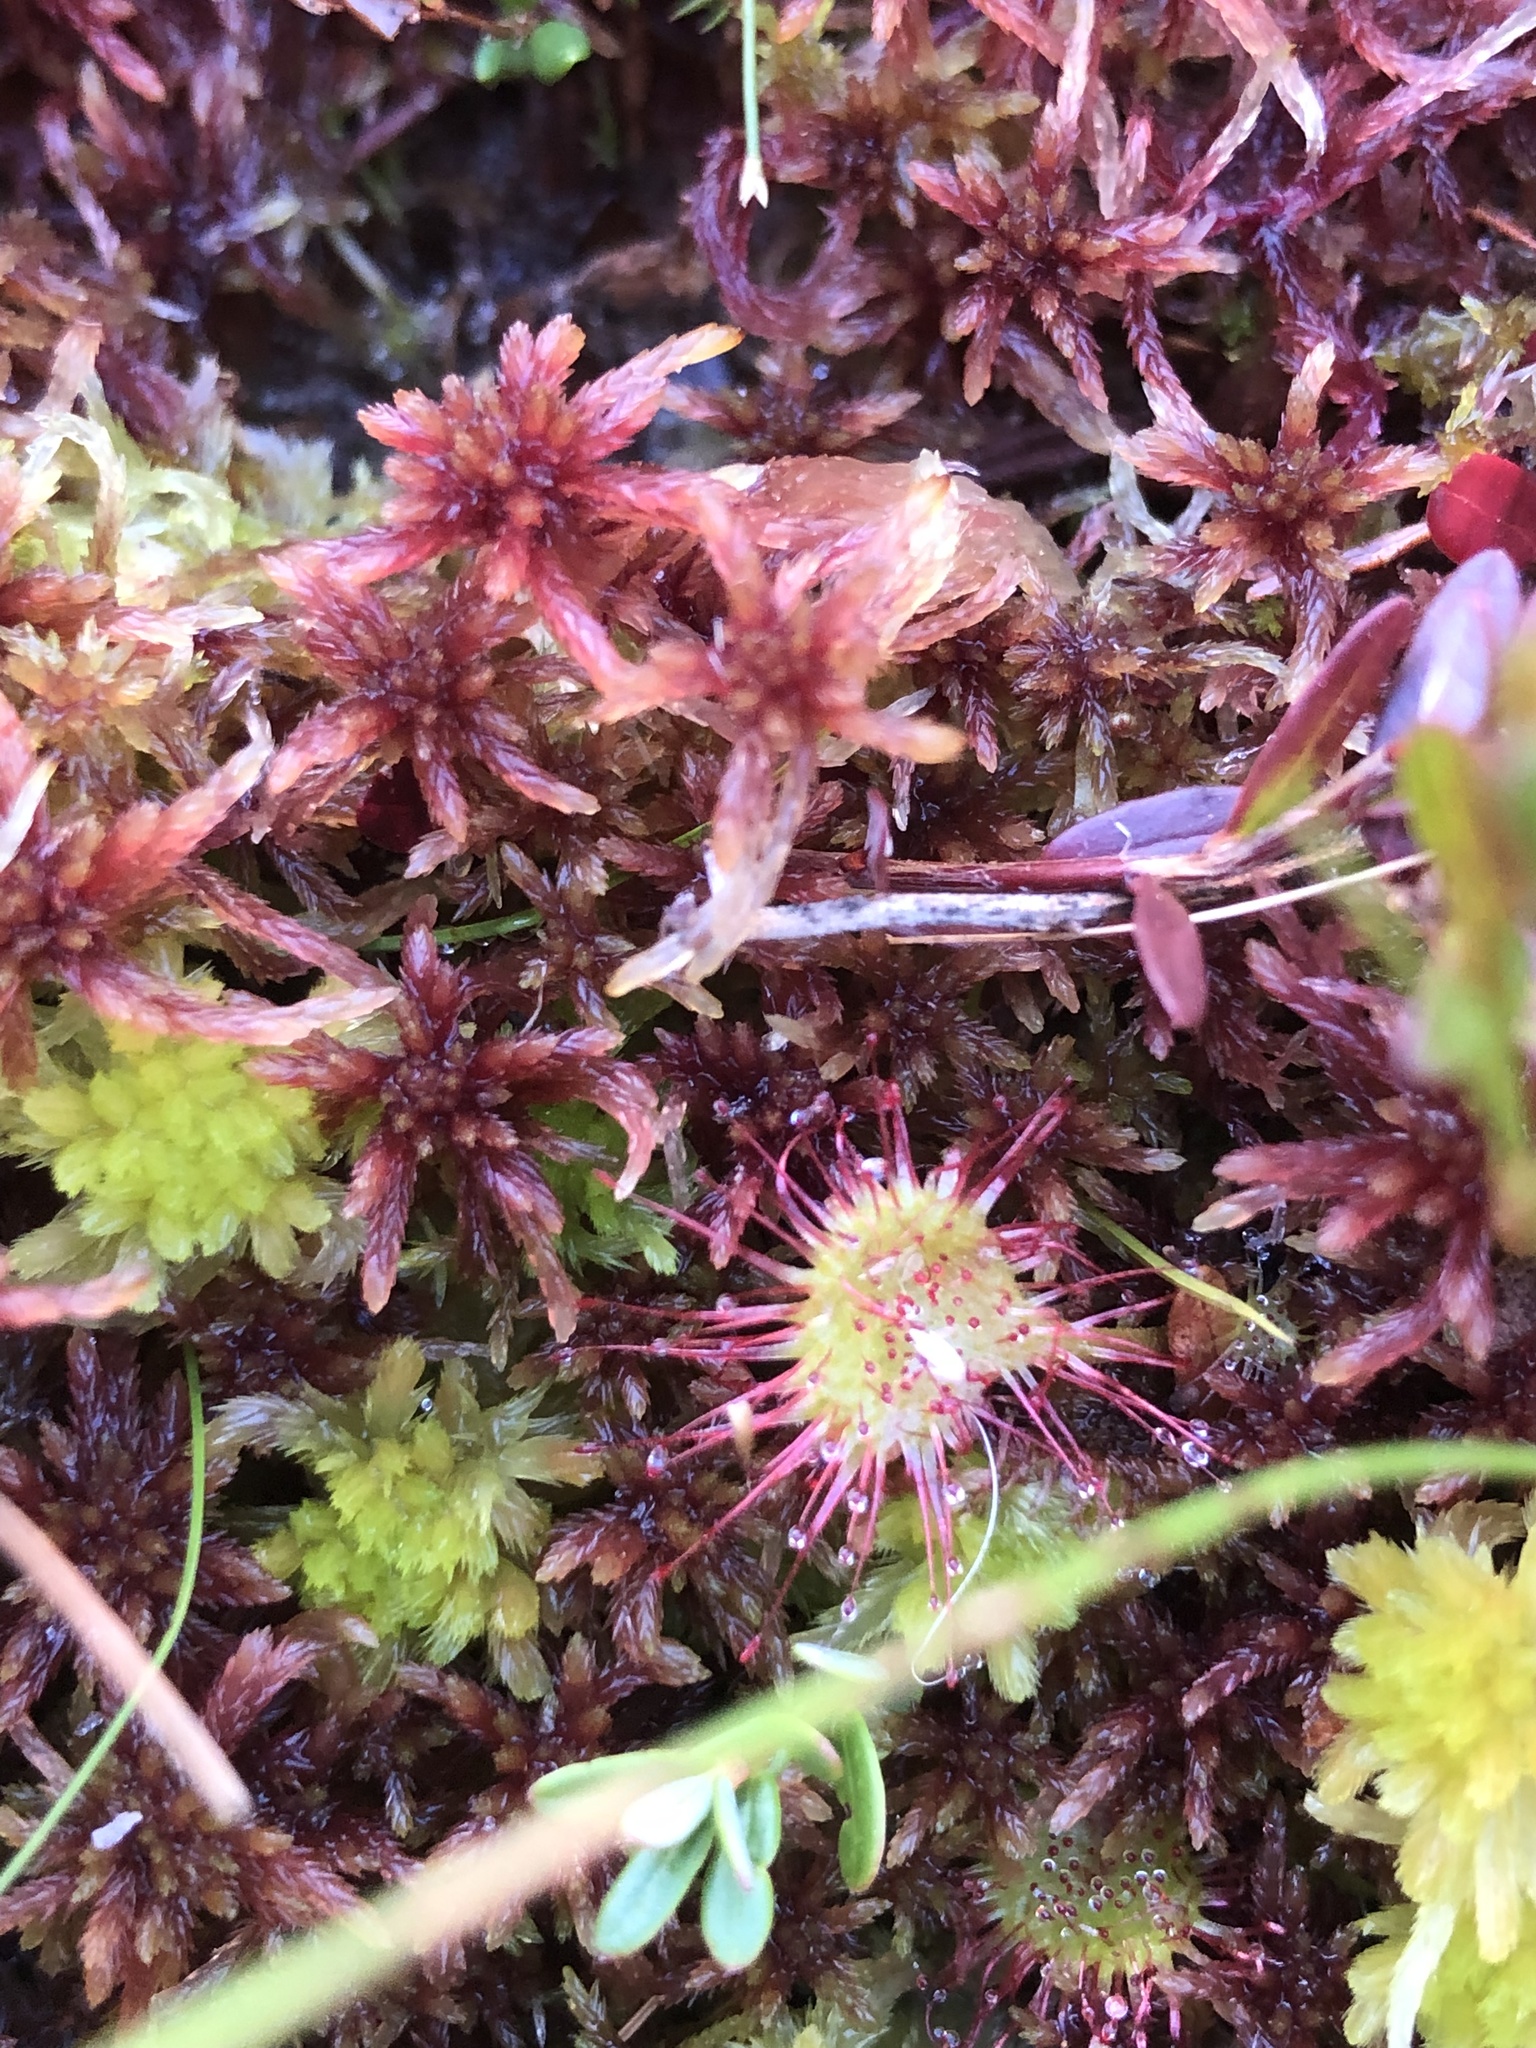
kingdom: Plantae
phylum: Tracheophyta
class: Magnoliopsida
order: Caryophyllales
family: Droseraceae
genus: Drosera
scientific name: Drosera rotundifolia
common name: Round-leaved sundew
